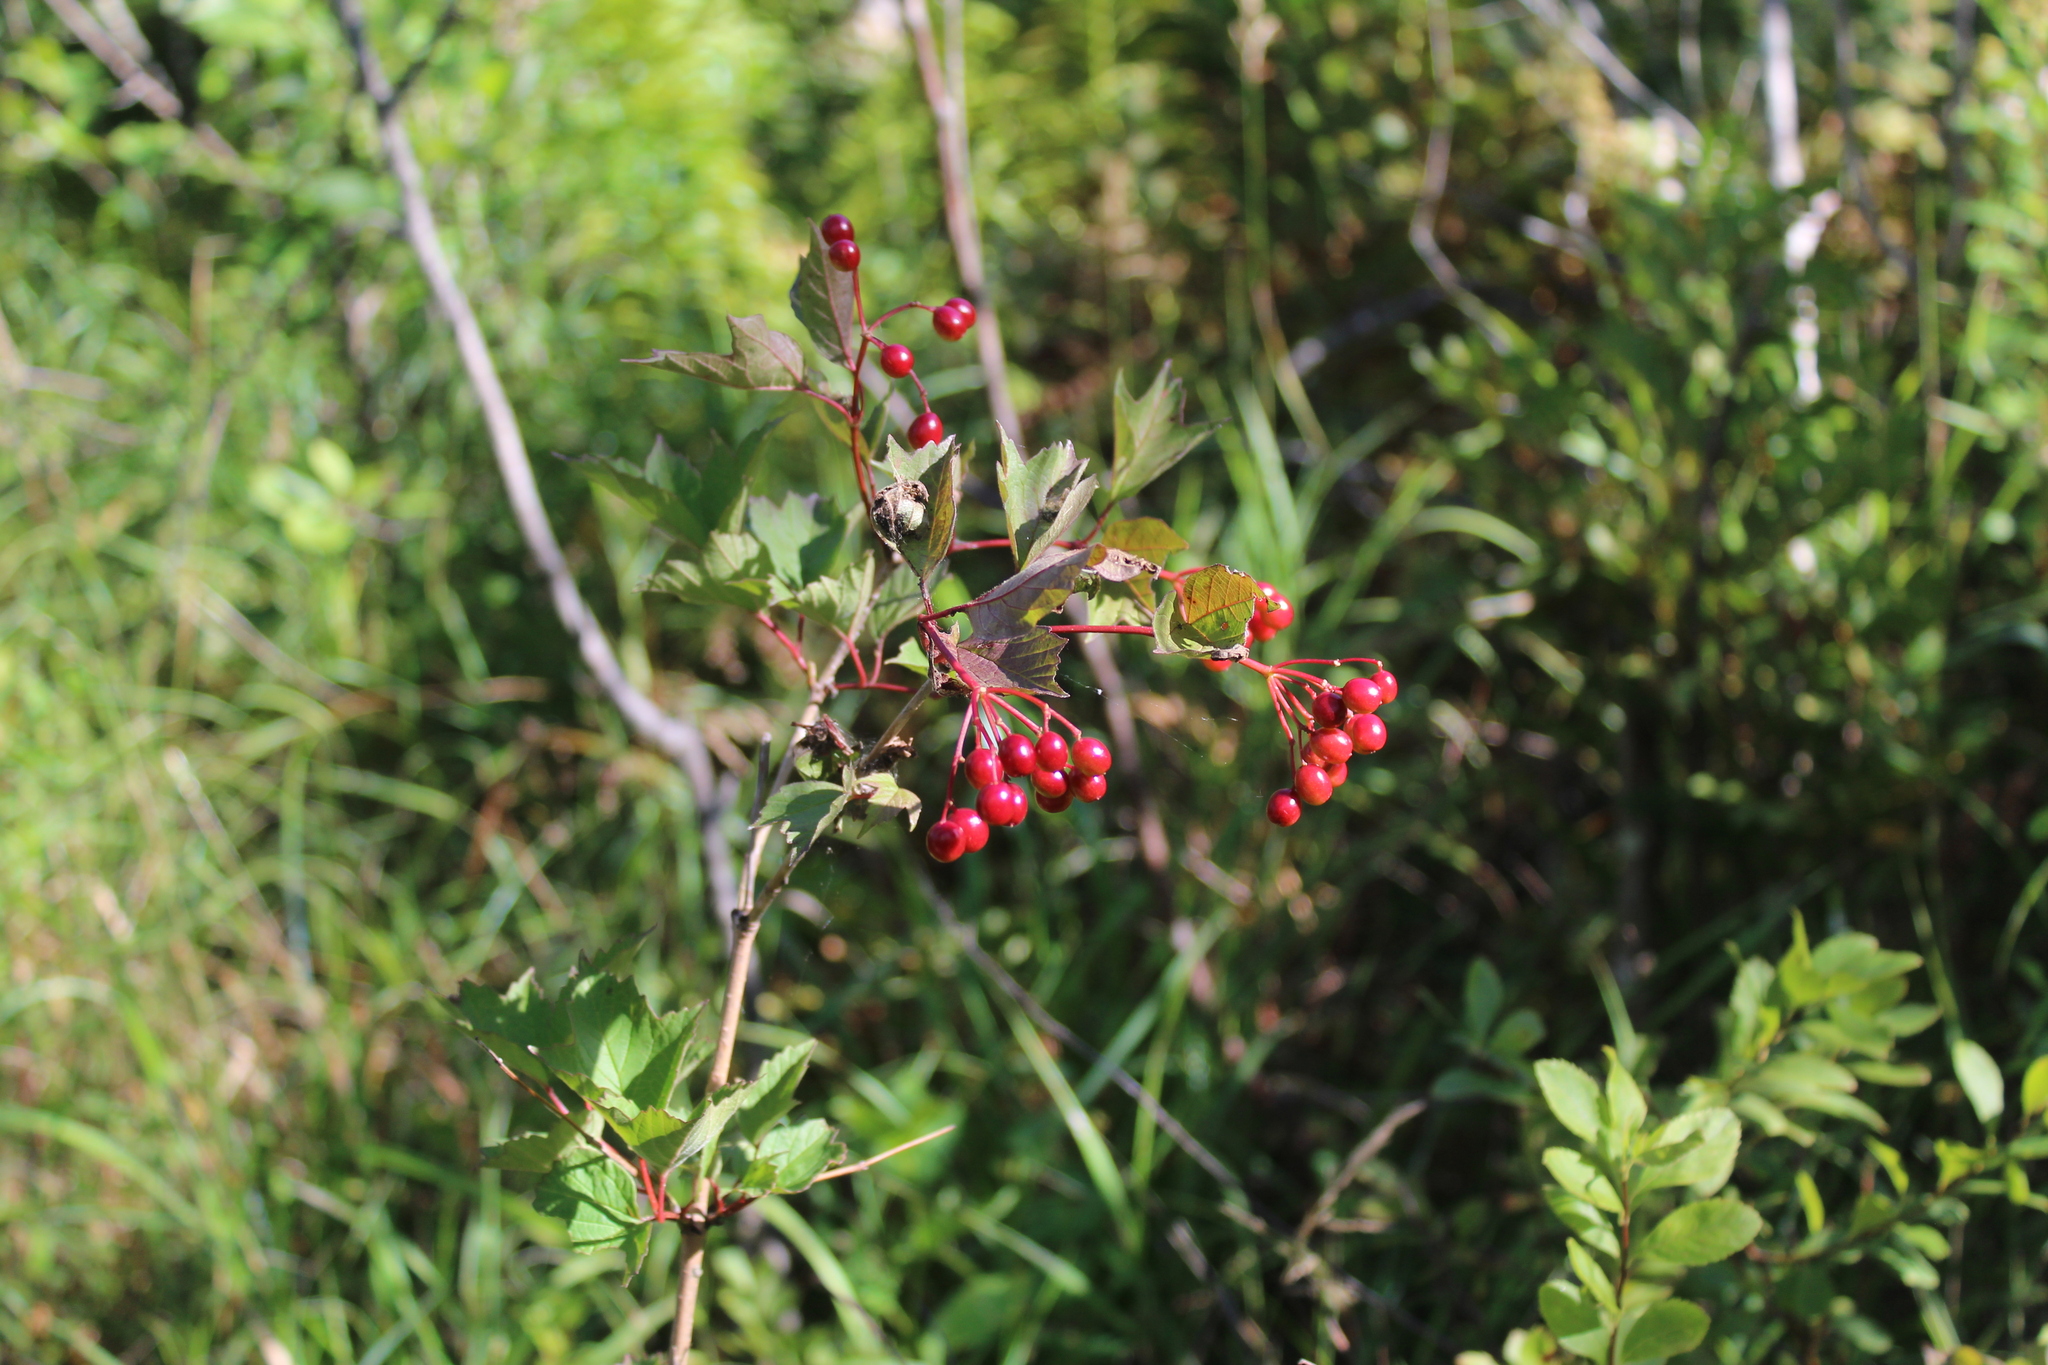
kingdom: Plantae
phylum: Tracheophyta
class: Magnoliopsida
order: Dipsacales
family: Viburnaceae
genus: Viburnum
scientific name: Viburnum opulus
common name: Guelder-rose
